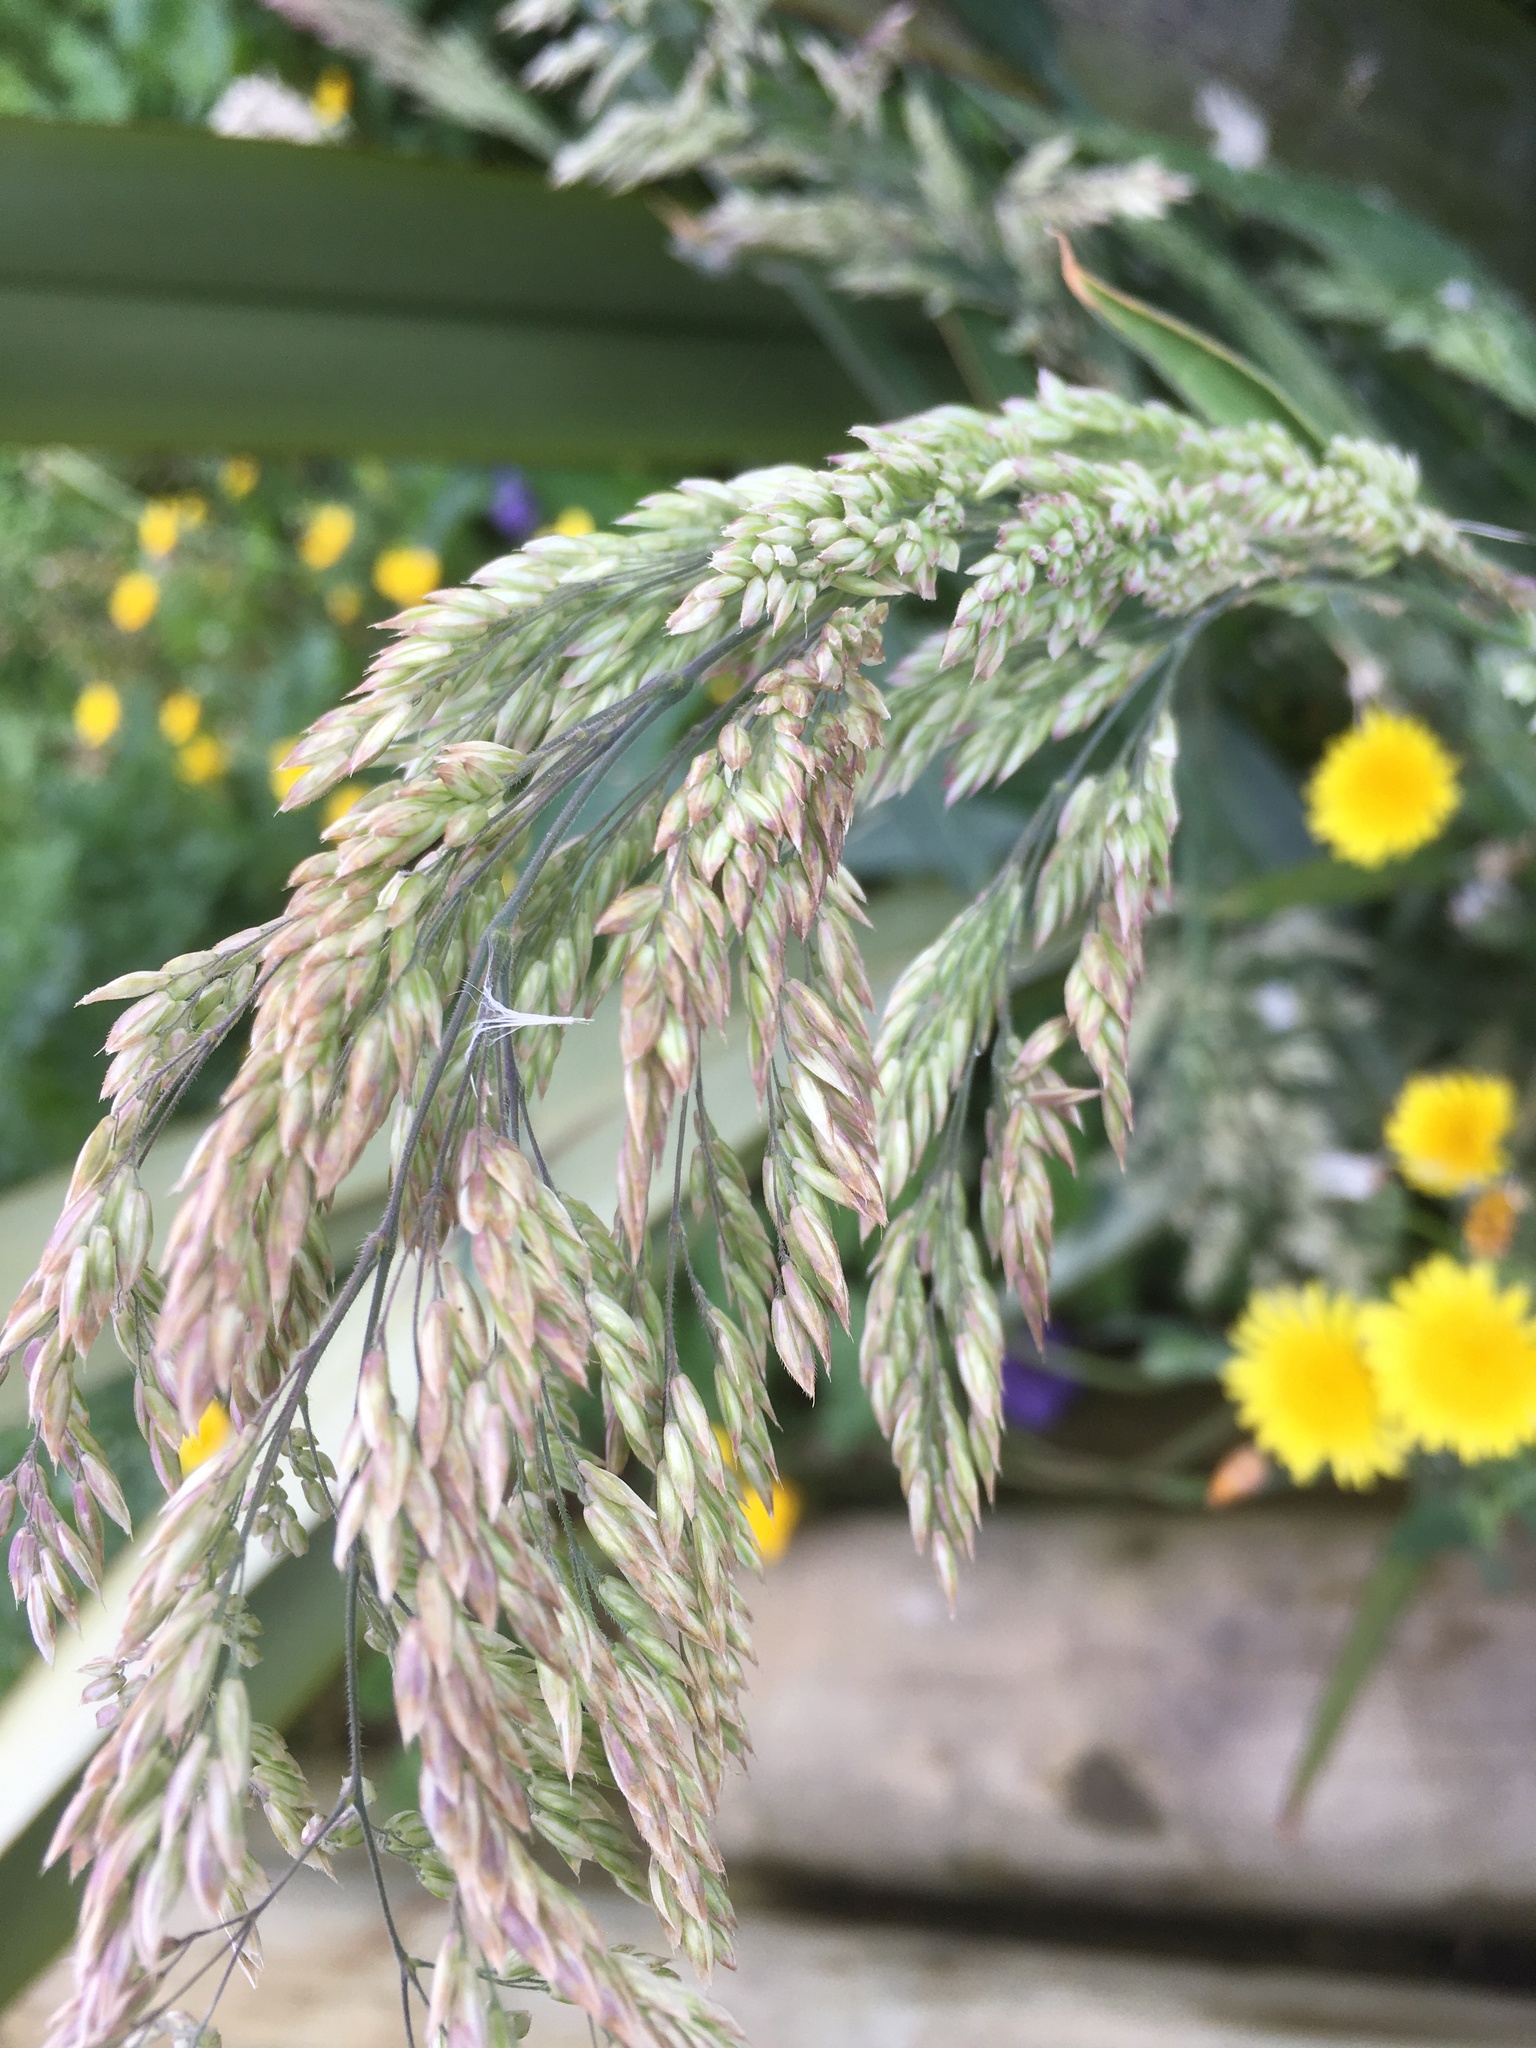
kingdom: Plantae
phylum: Tracheophyta
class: Liliopsida
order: Poales
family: Poaceae
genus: Holcus
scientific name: Holcus lanatus
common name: Yorkshire-fog
